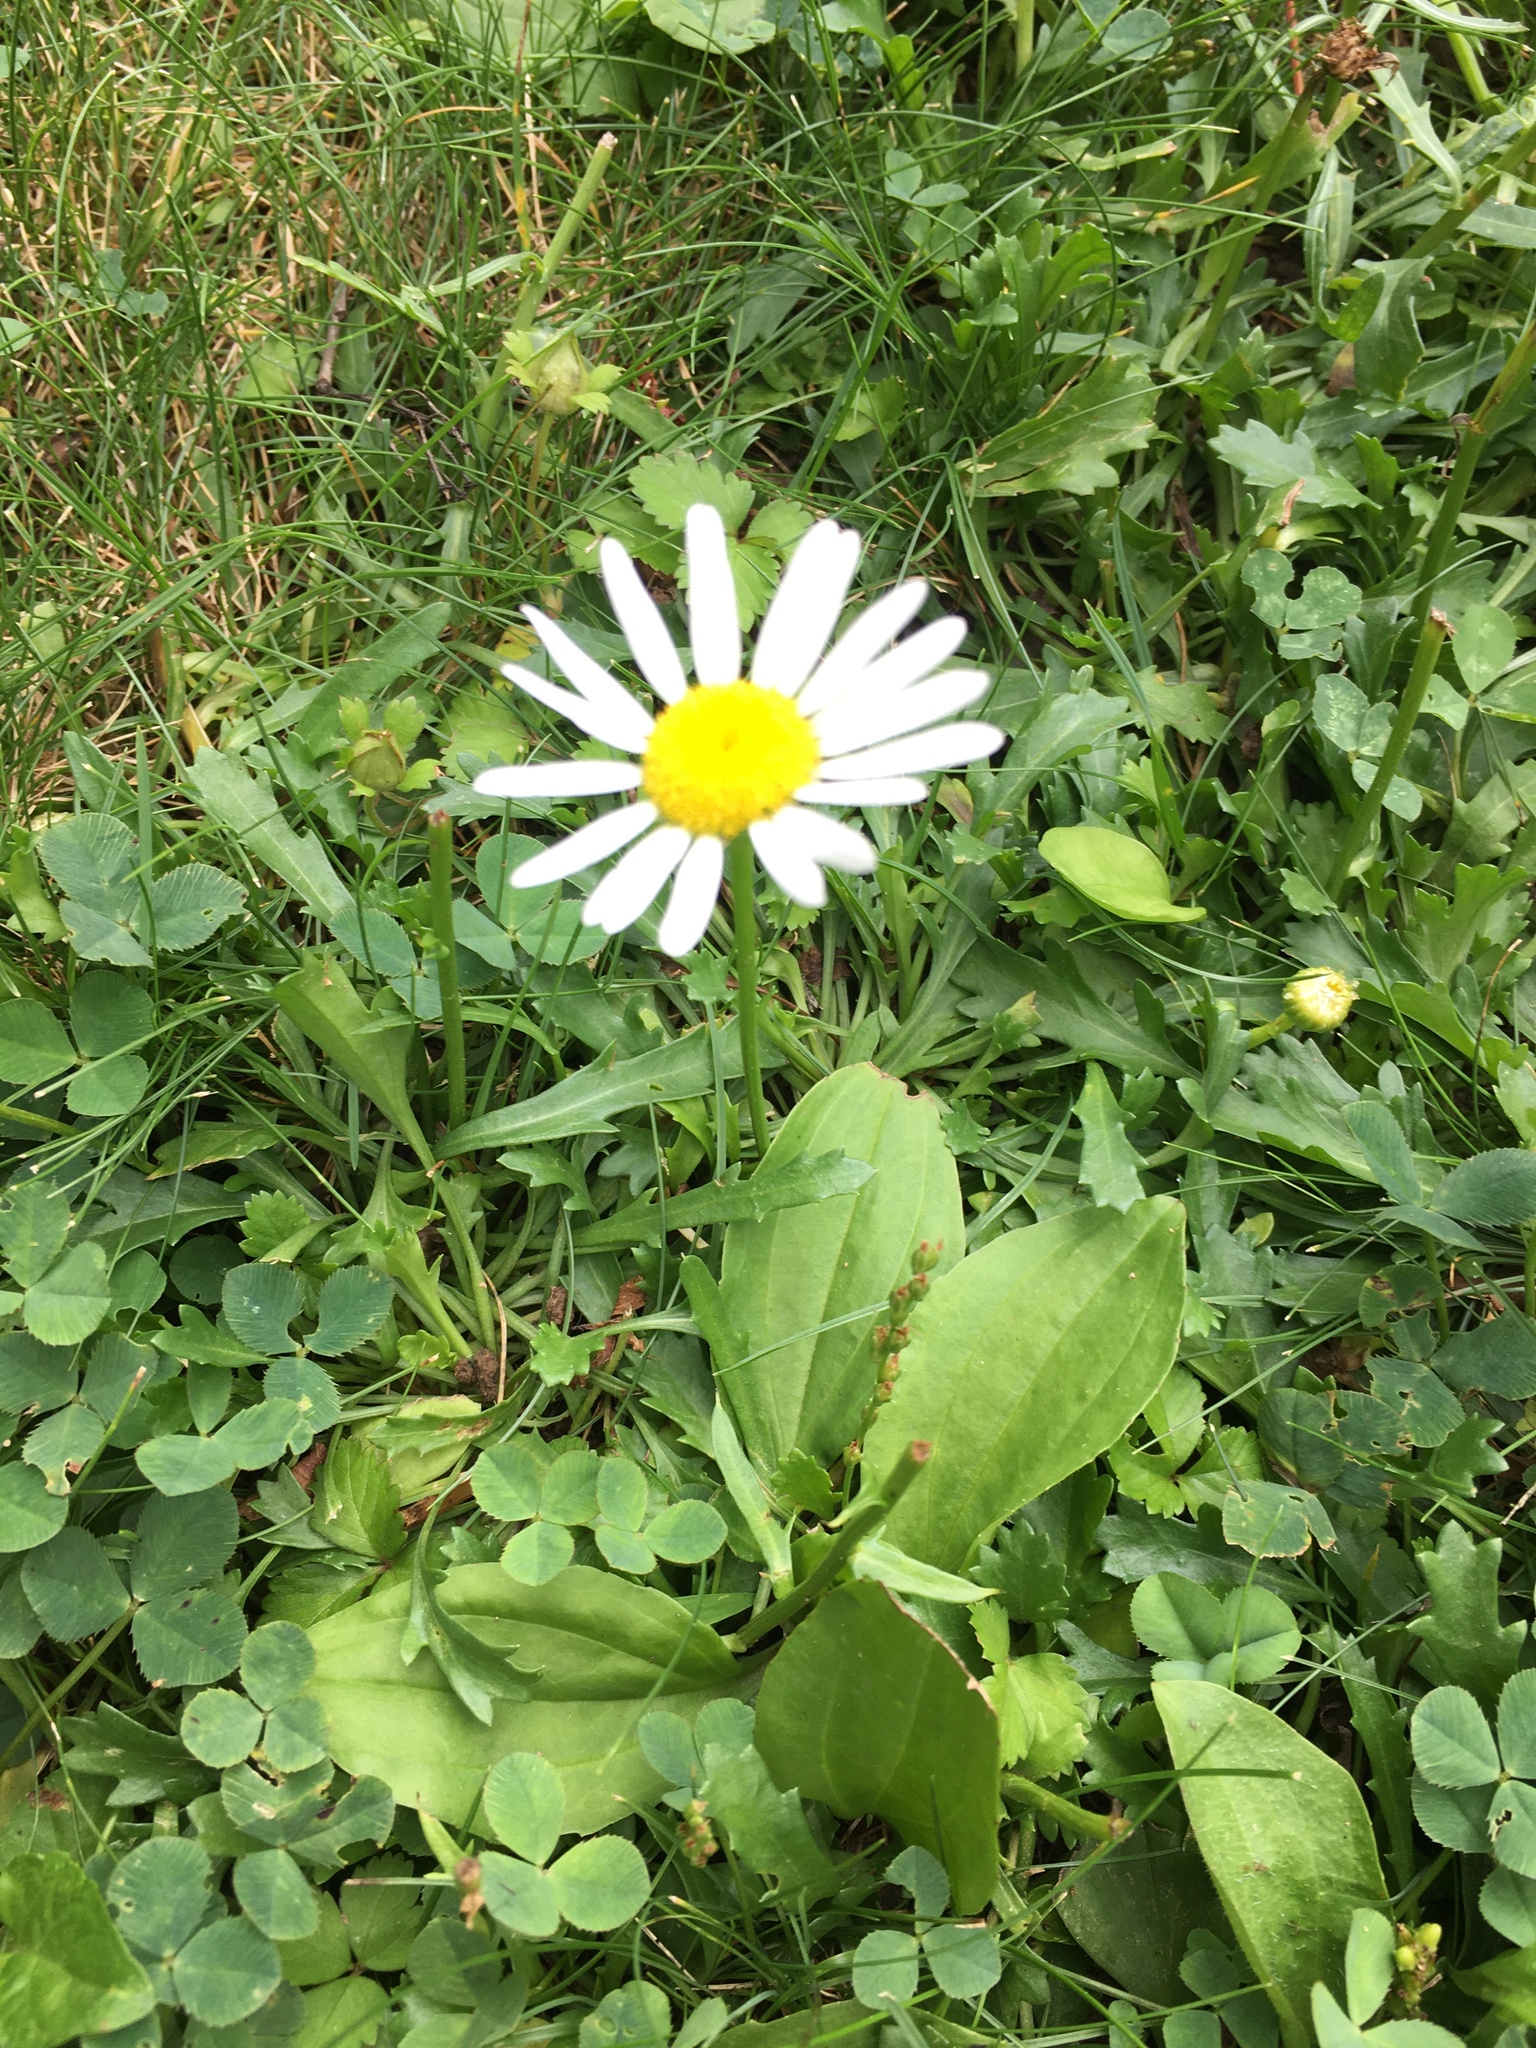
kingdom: Plantae
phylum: Tracheophyta
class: Magnoliopsida
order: Asterales
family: Asteraceae
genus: Leucanthemum
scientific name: Leucanthemum vulgare
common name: Oxeye daisy
